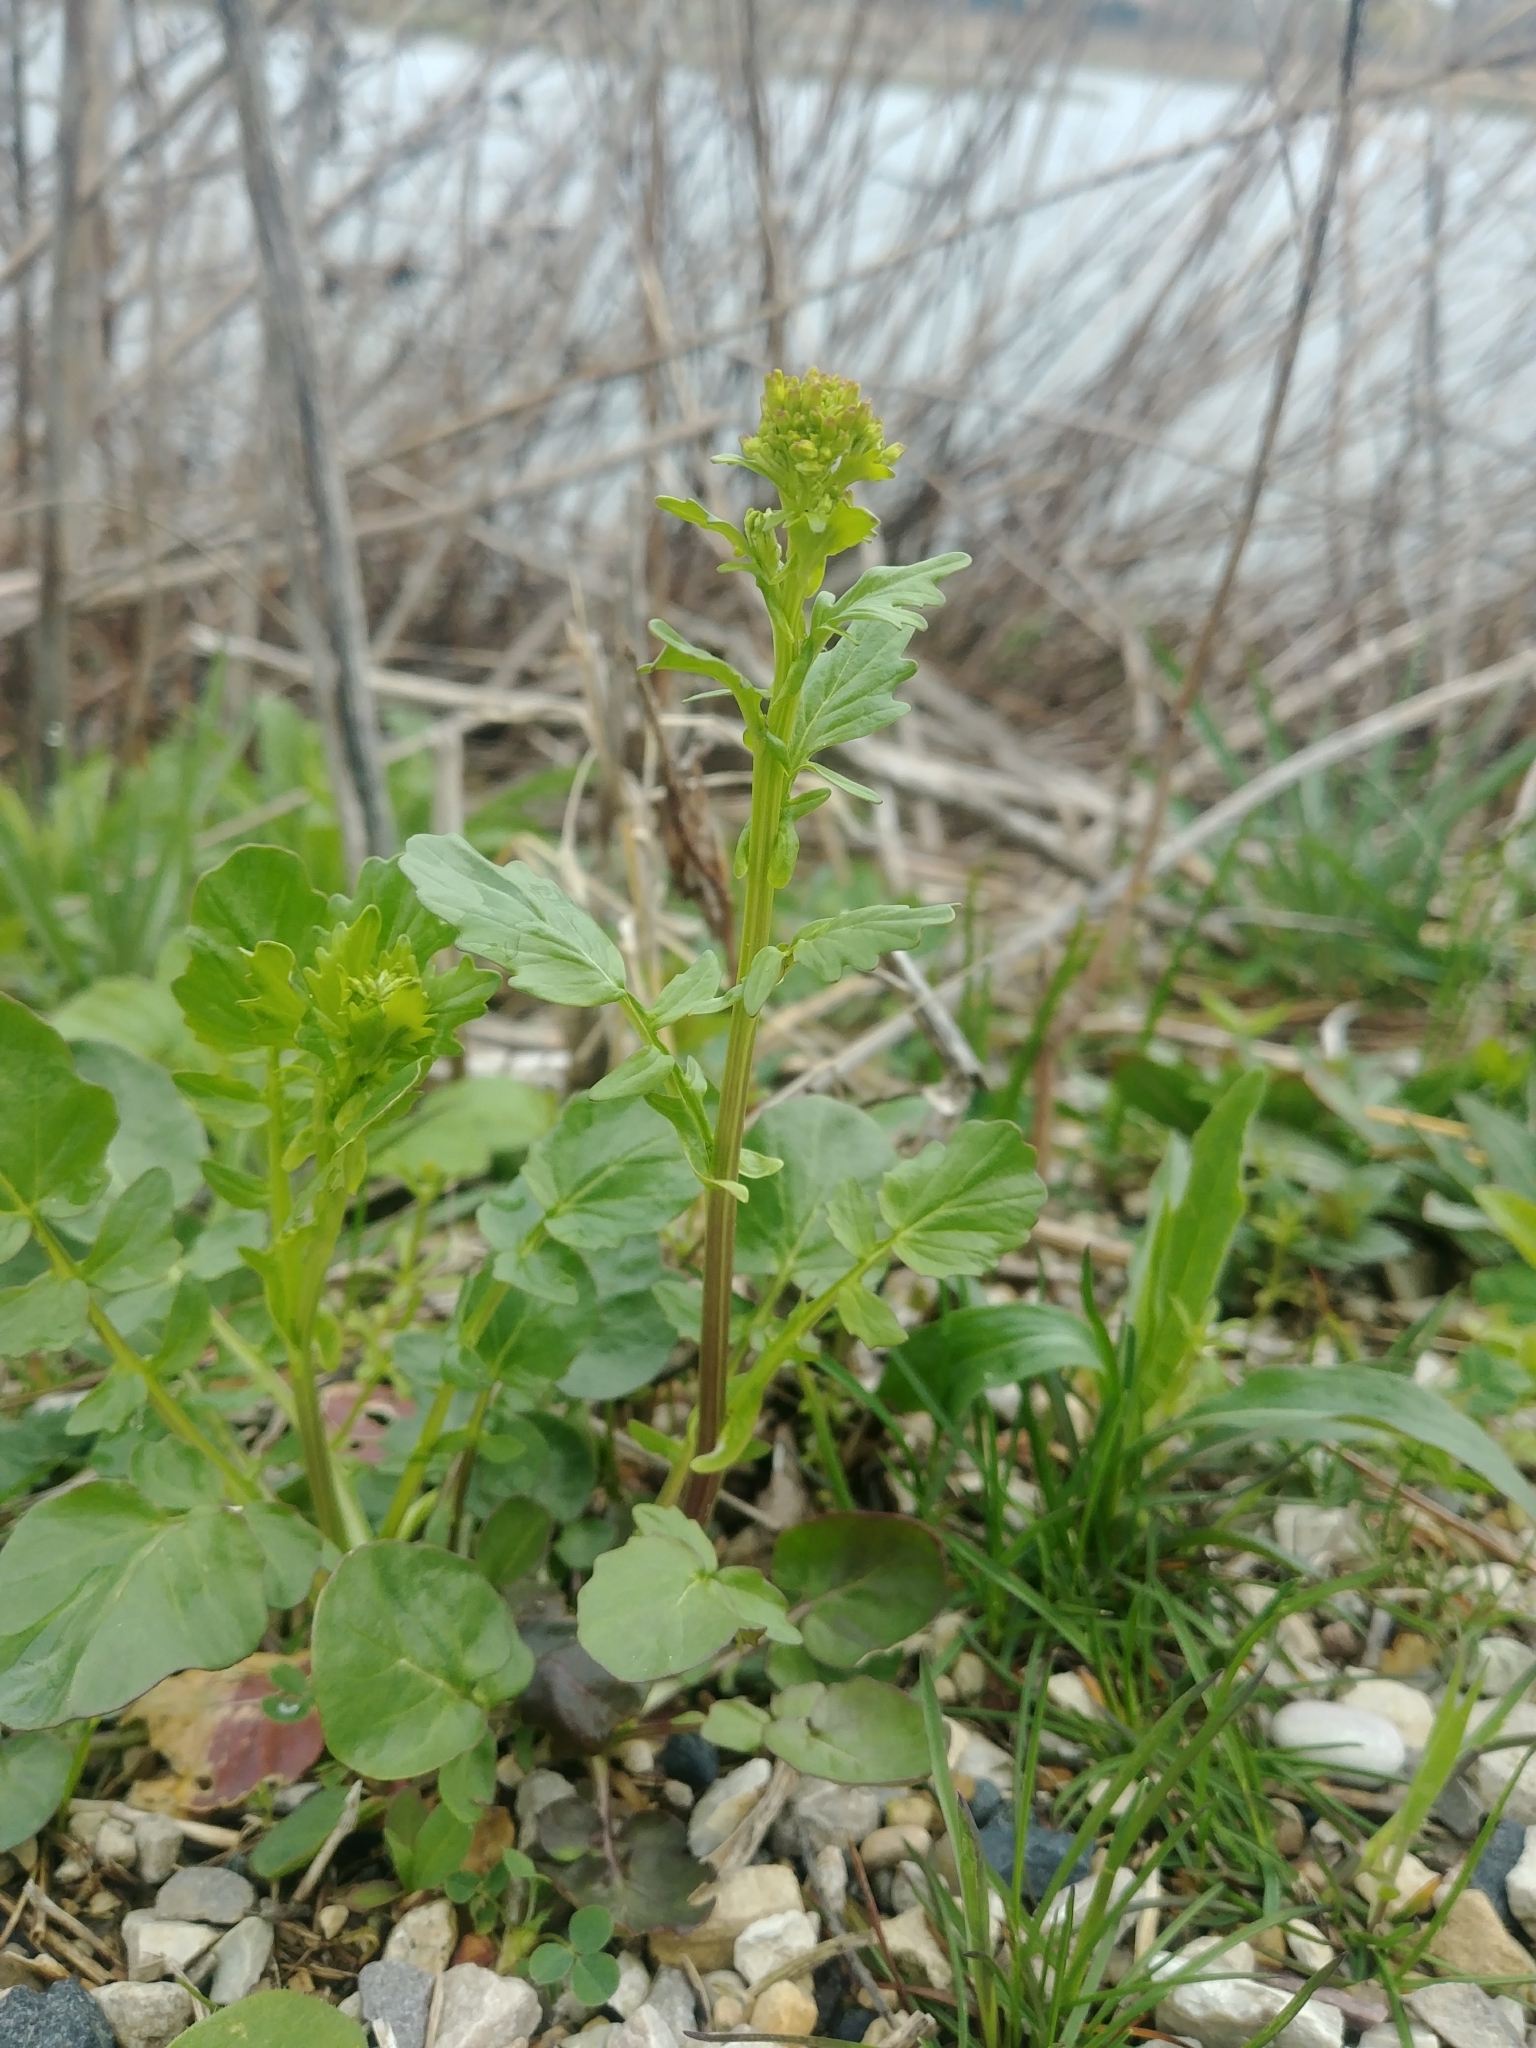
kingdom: Plantae
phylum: Tracheophyta
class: Magnoliopsida
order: Brassicales
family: Brassicaceae
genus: Barbarea
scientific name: Barbarea vulgaris
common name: Cressy-greens
